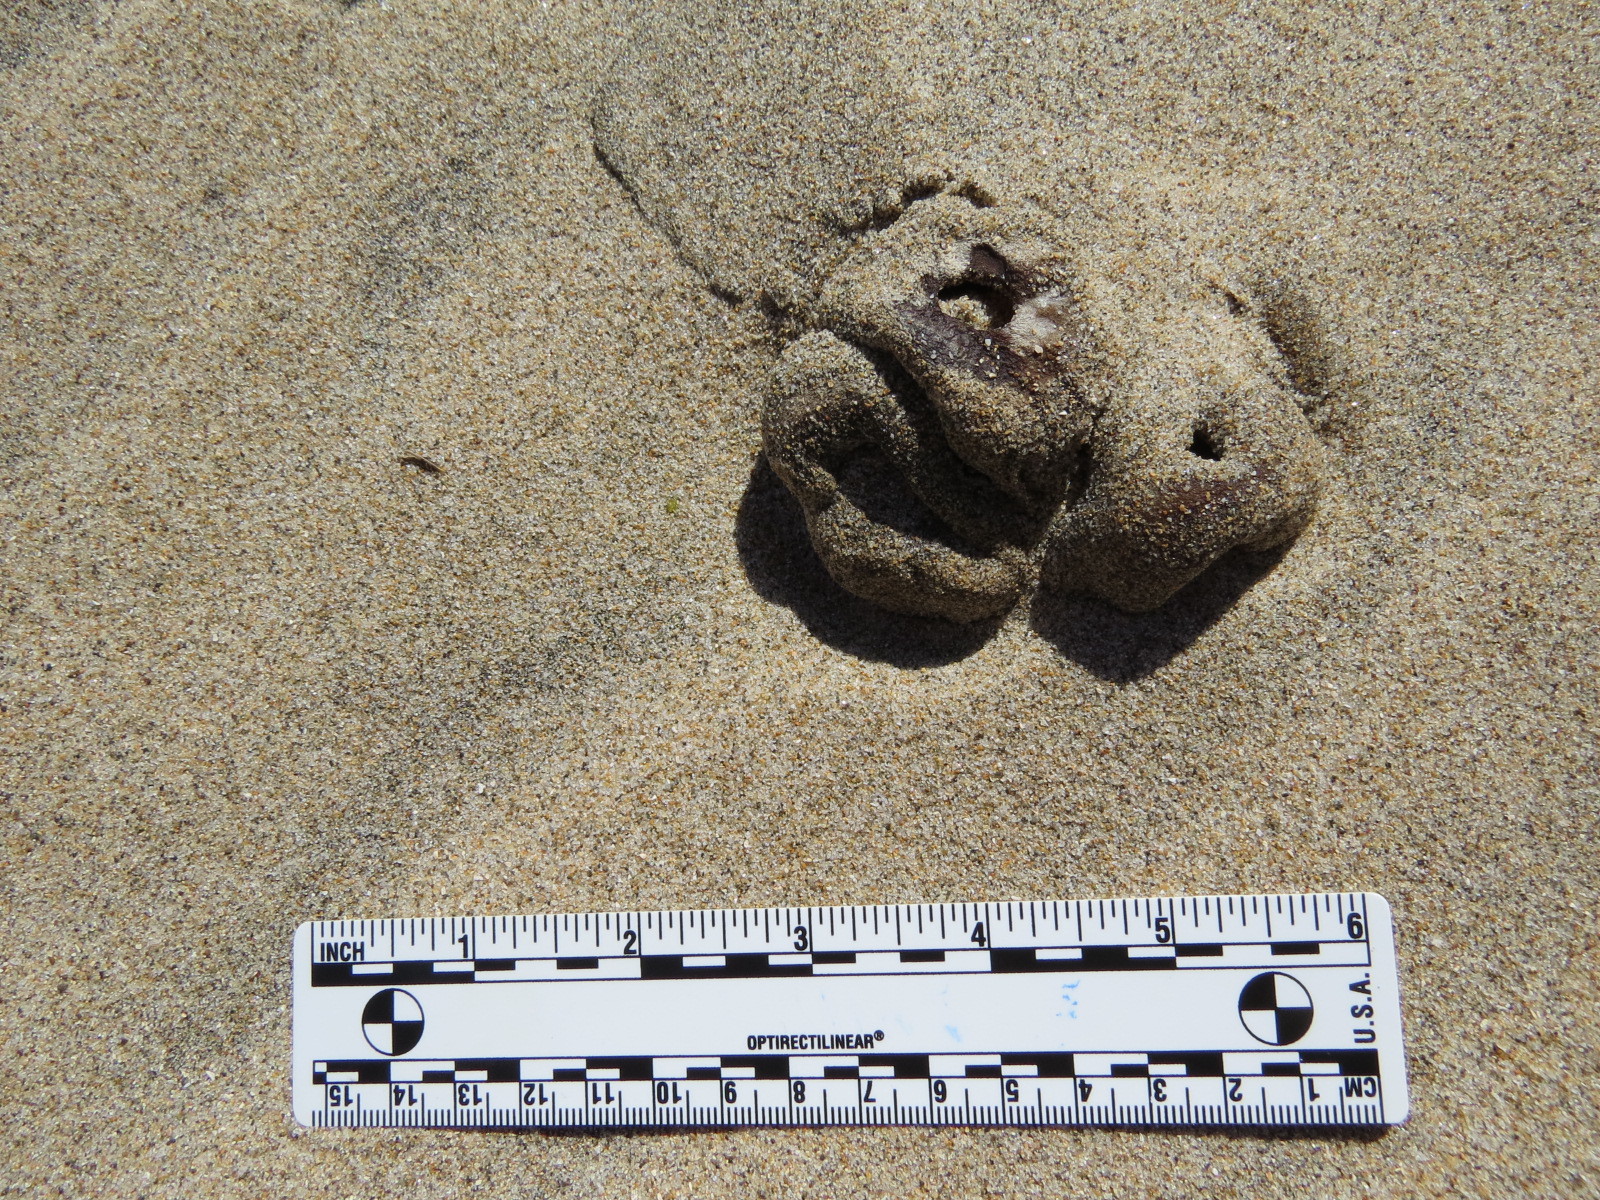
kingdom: Fungi
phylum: Ascomycota
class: Pezizomycetes
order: Pezizales
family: Pezizaceae
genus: Peziza
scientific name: Peziza ammophila
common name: Dune cup
